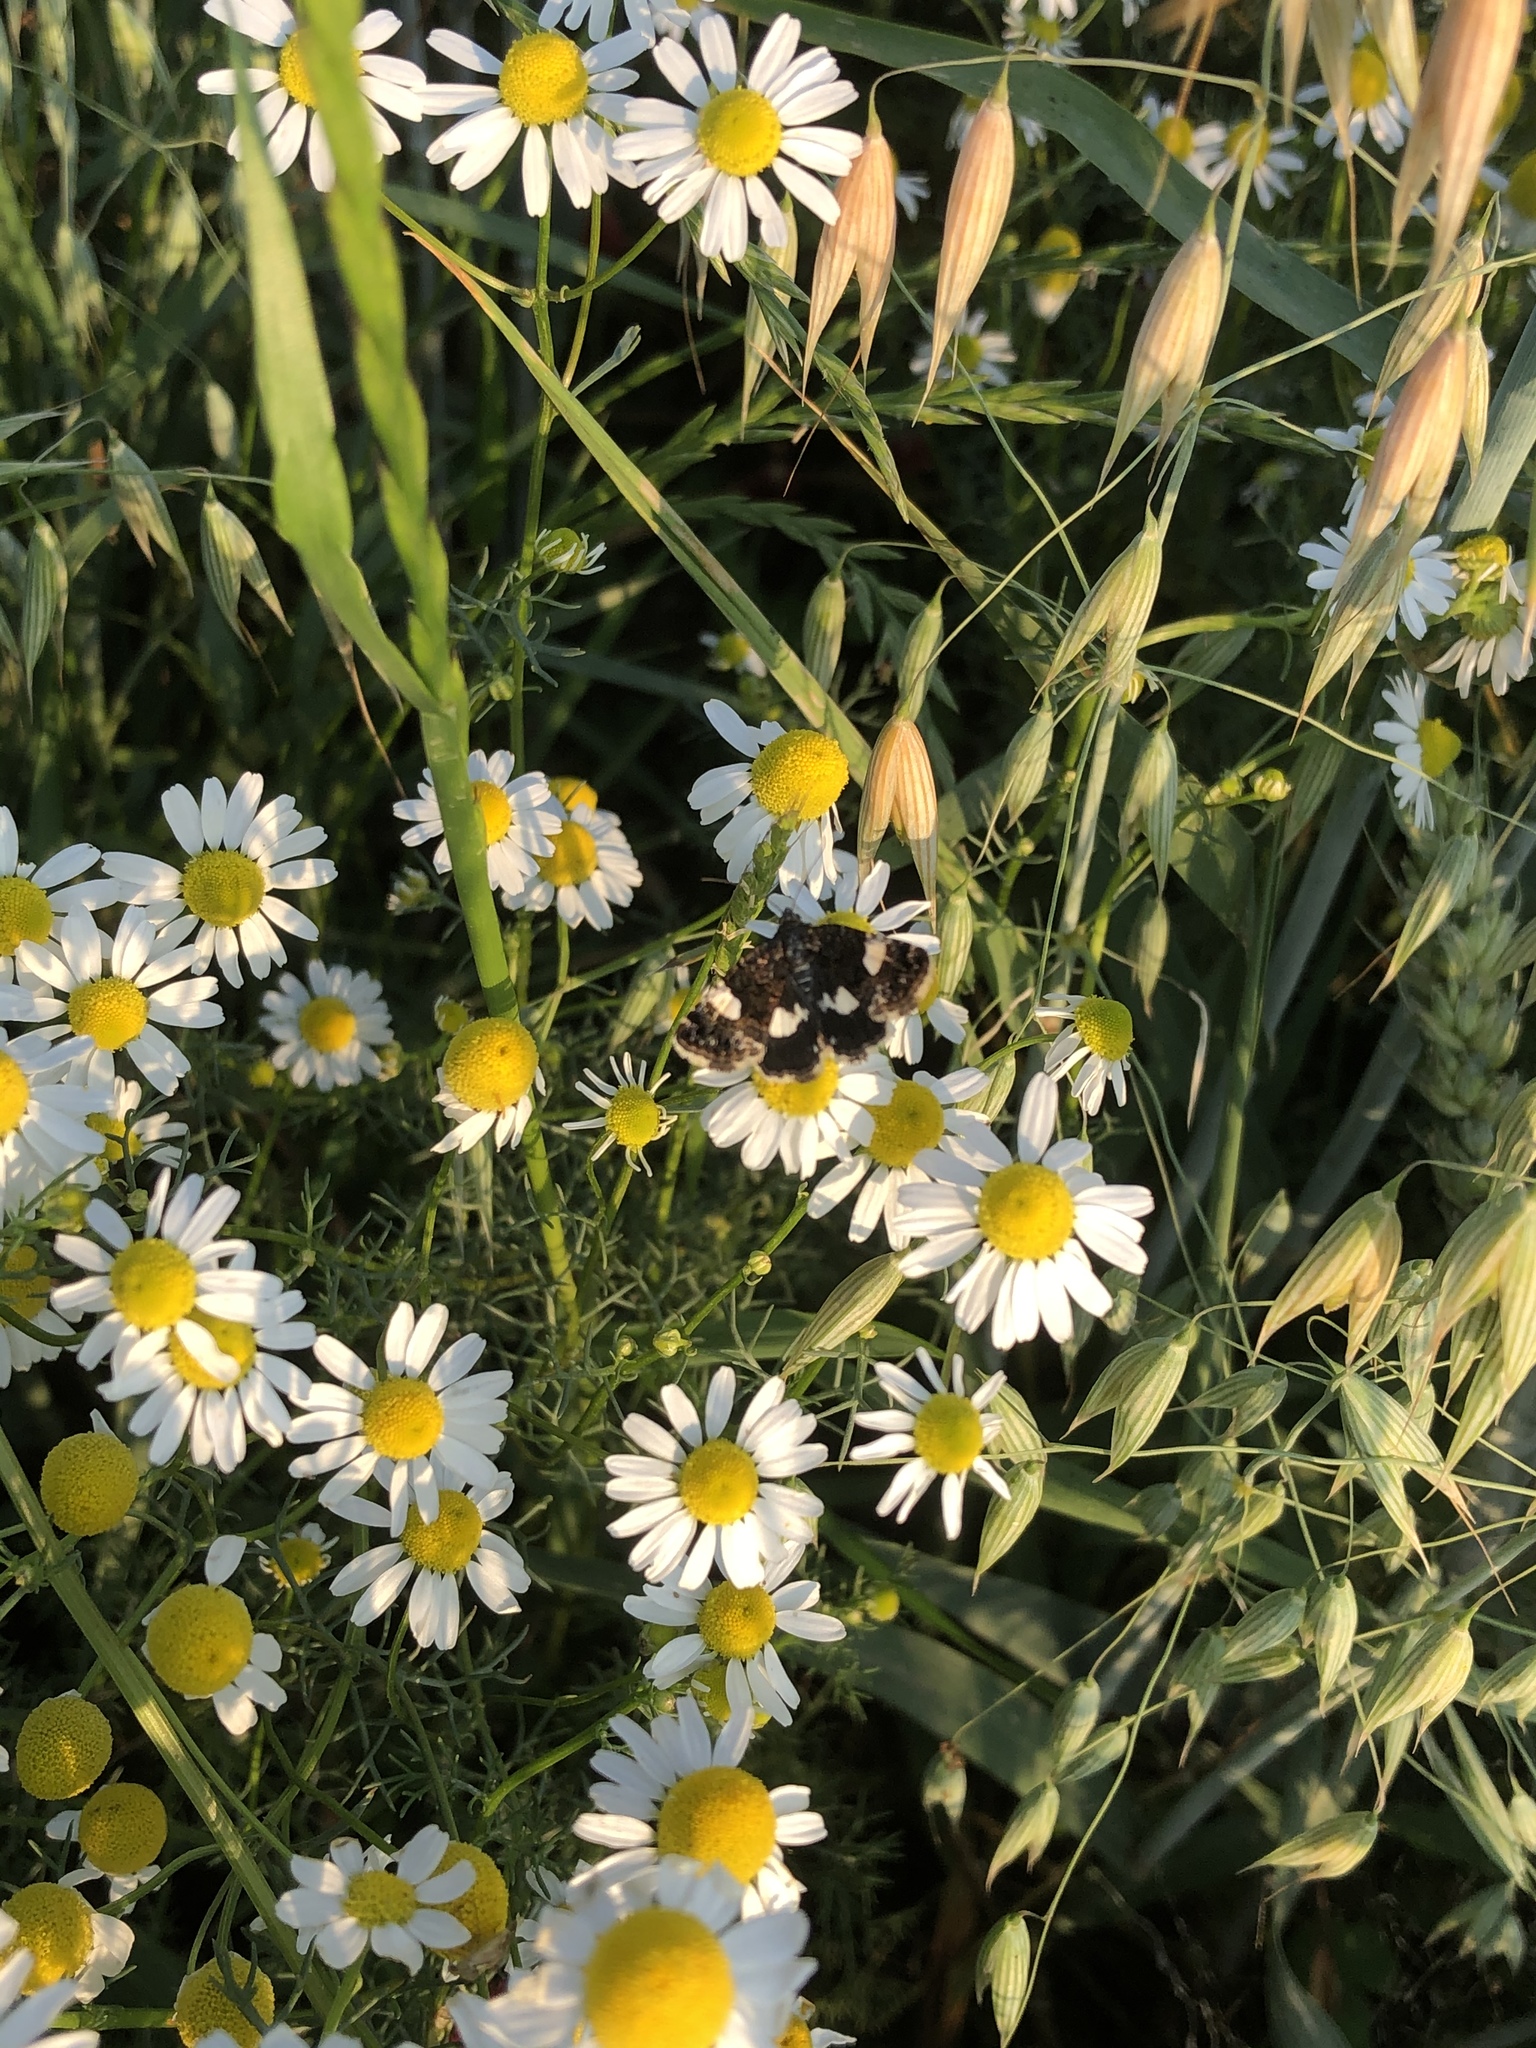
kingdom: Animalia
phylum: Arthropoda
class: Insecta
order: Lepidoptera
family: Erebidae
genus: Tyta
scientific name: Tyta luctuosa
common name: Four-spotted
